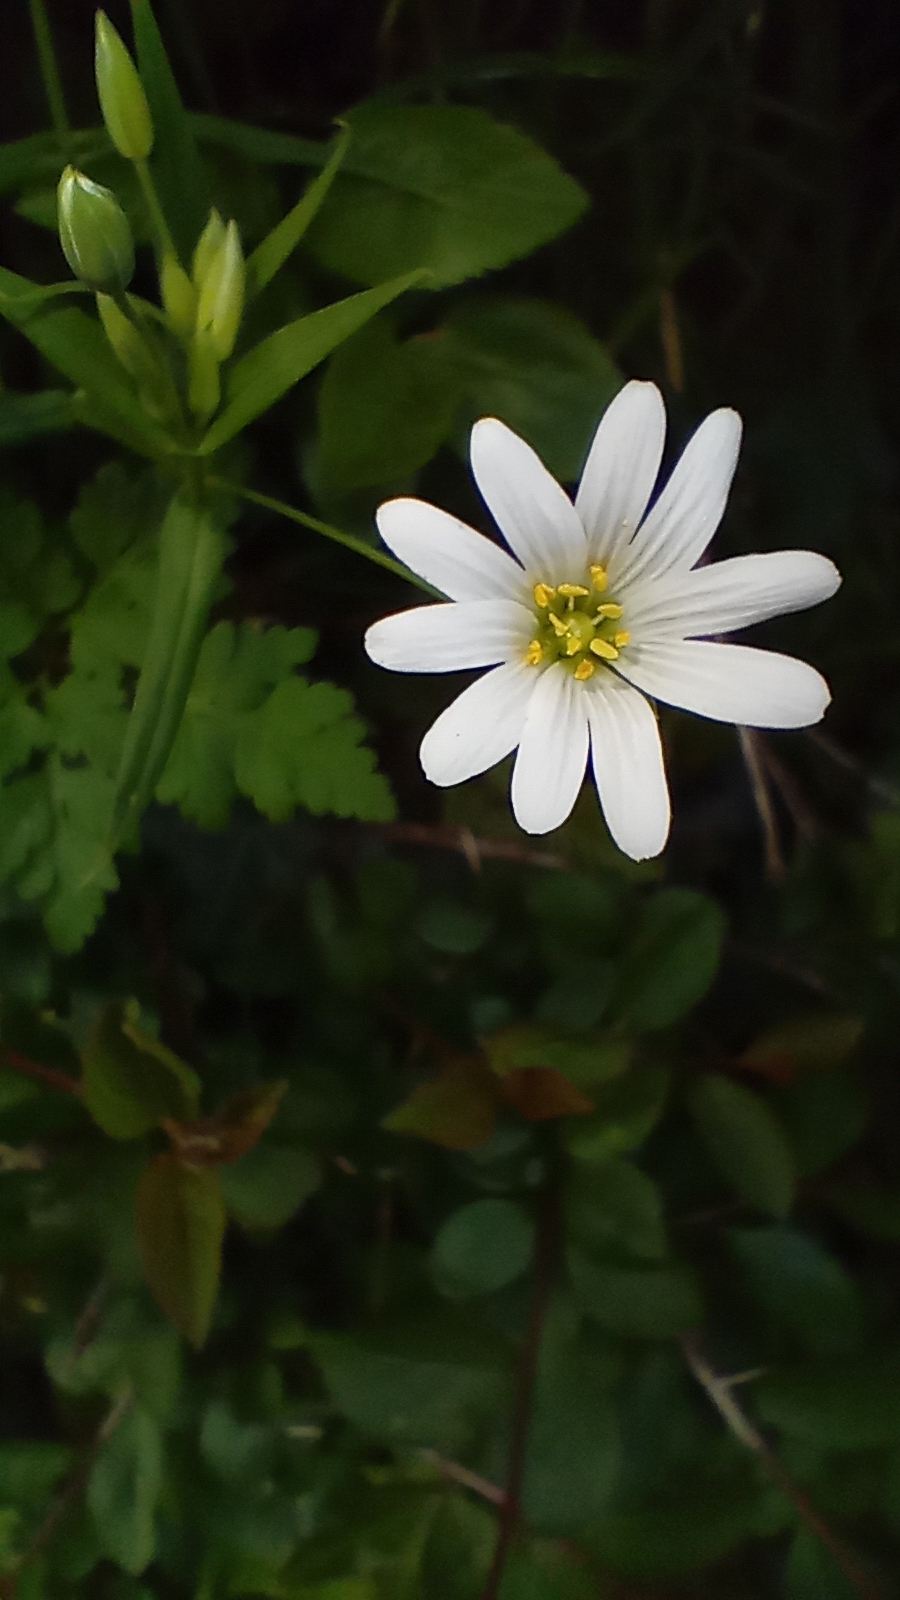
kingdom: Plantae
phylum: Tracheophyta
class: Magnoliopsida
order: Caryophyllales
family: Caryophyllaceae
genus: Rabelera
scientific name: Rabelera holostea
